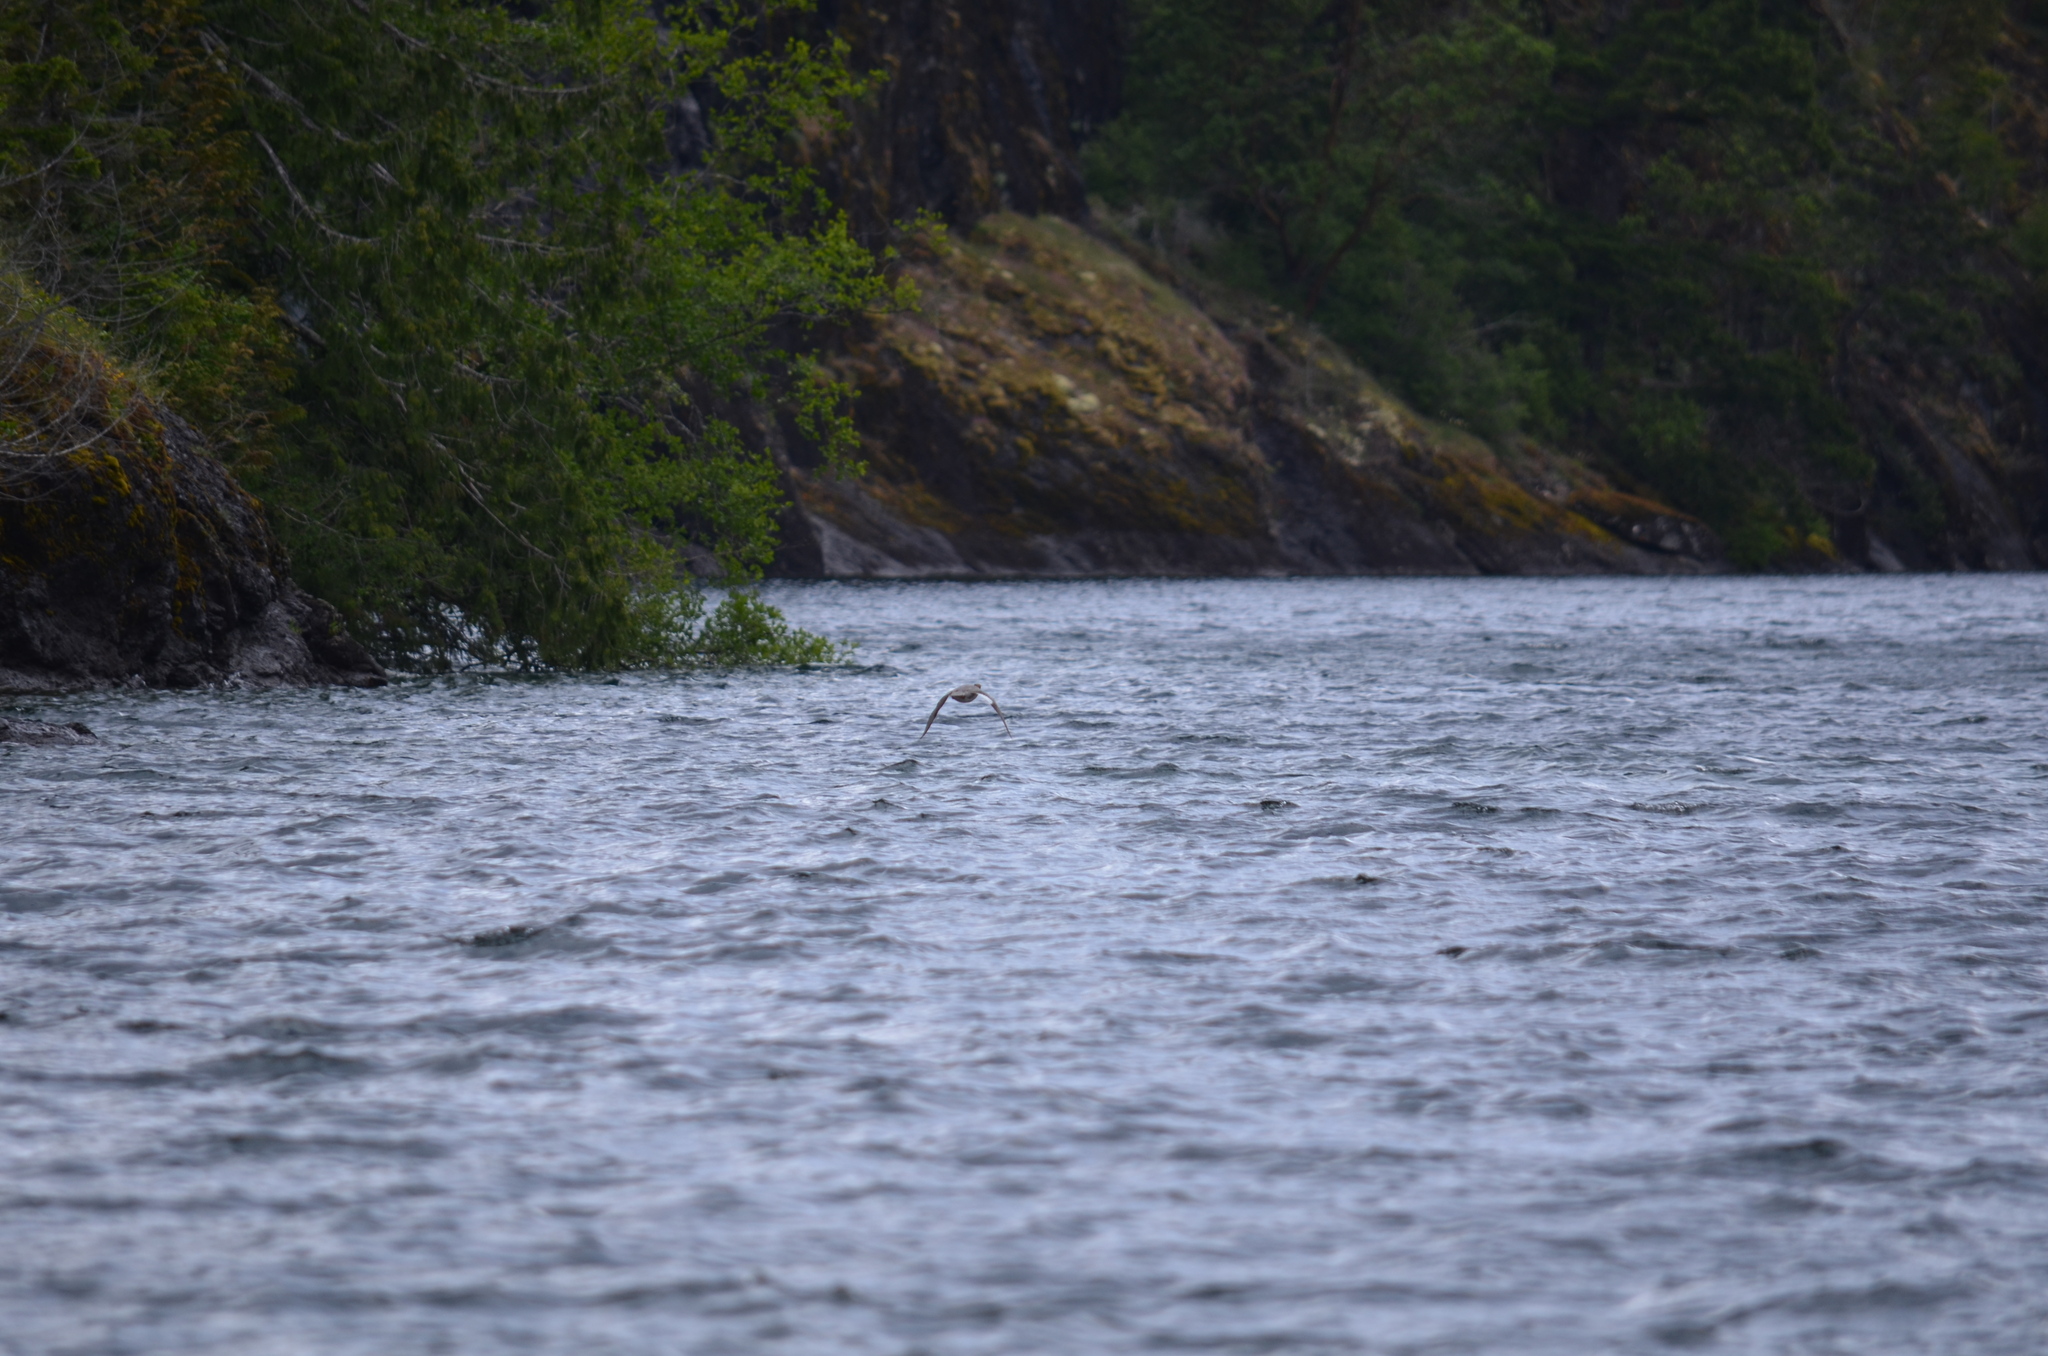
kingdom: Animalia
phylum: Chordata
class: Aves
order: Anseriformes
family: Anatidae
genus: Mergus
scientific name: Mergus merganser
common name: Common merganser
